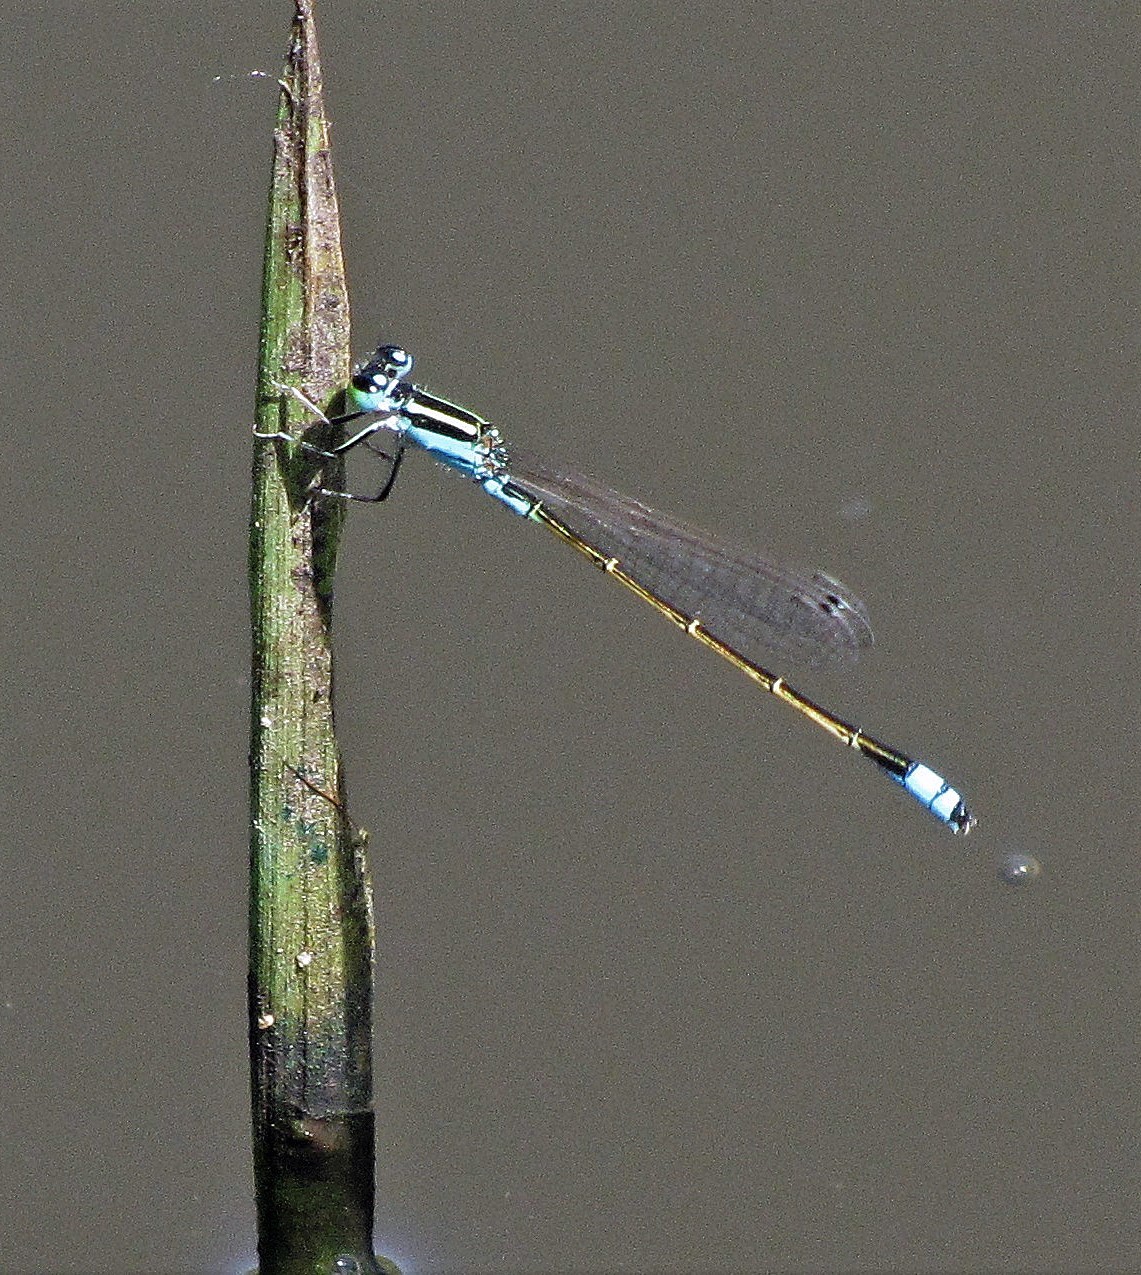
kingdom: Animalia
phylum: Arthropoda
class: Insecta
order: Odonata
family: Coenagrionidae
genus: Ischnura
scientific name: Ischnura fluviatilis
